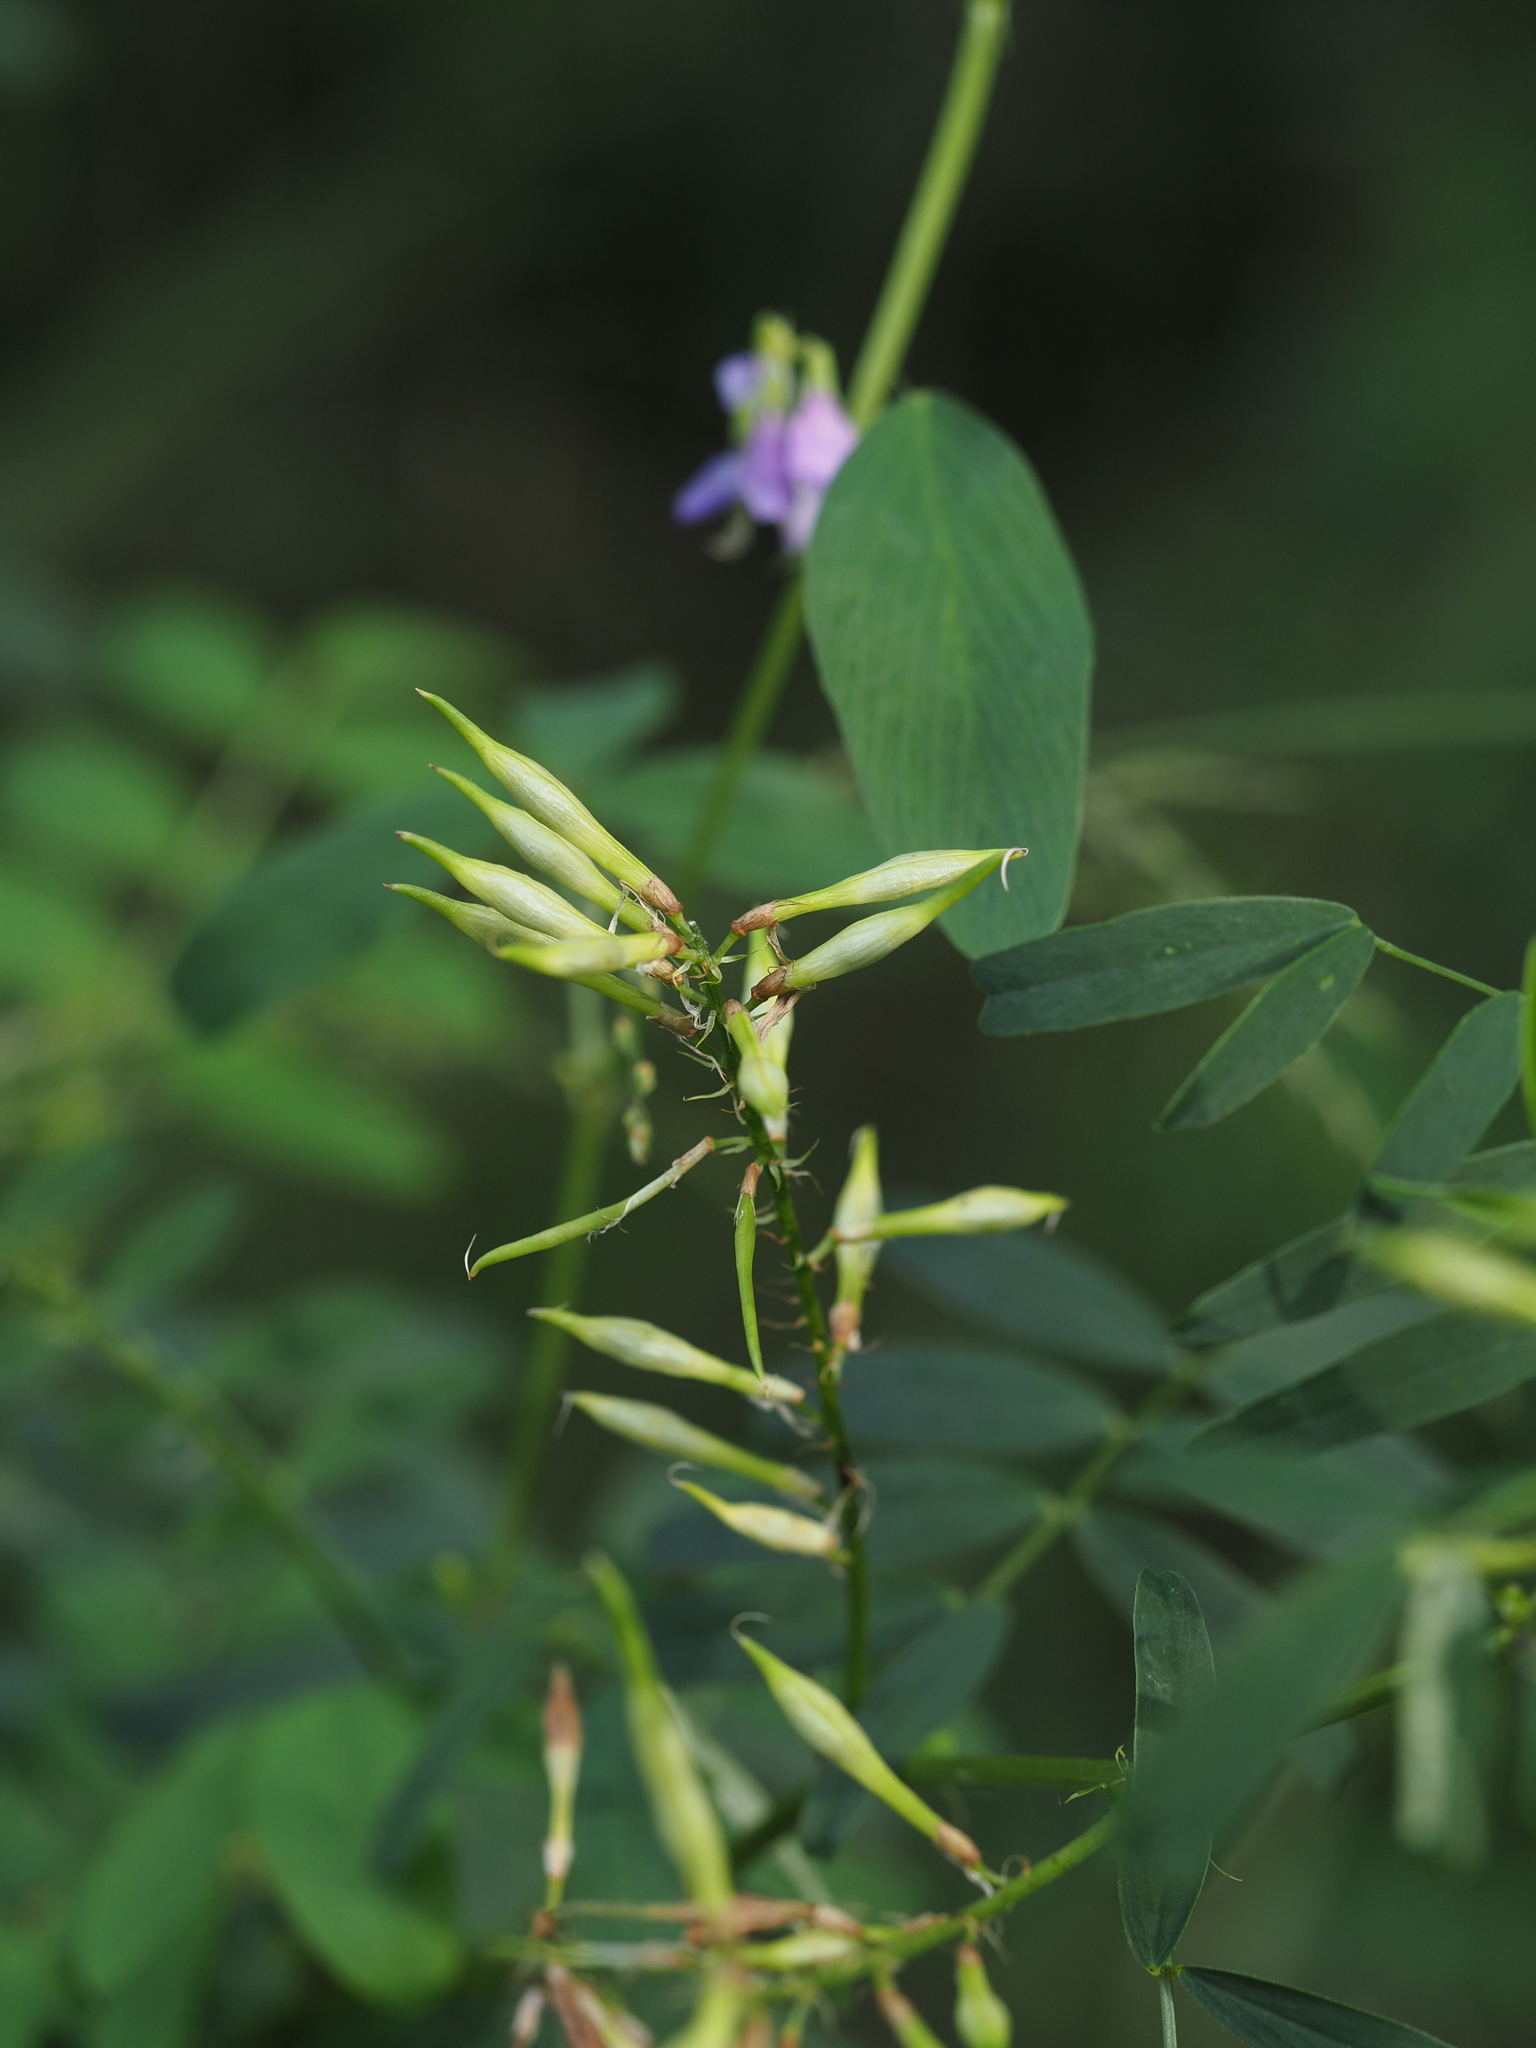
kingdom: Plantae
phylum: Tracheophyta
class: Magnoliopsida
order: Fabales
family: Fabaceae
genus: Galega
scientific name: Galega officinalis
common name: Goat's-rue
